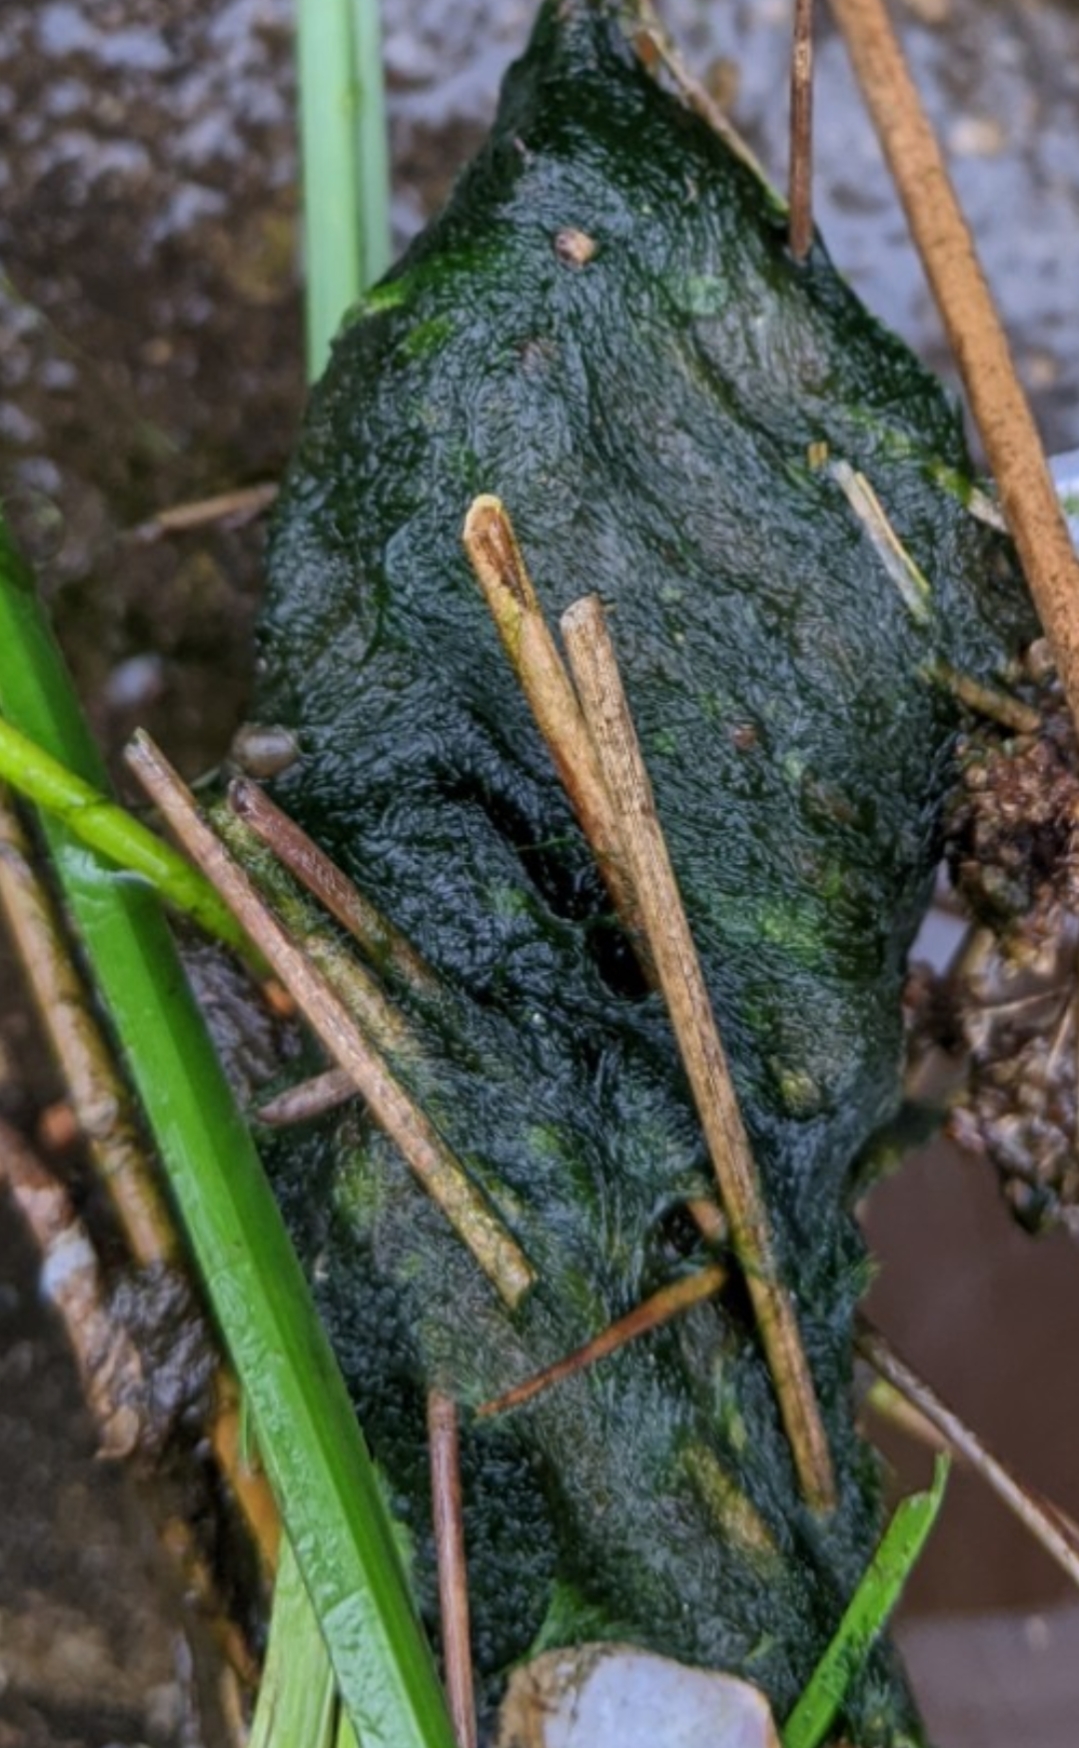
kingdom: Chromista
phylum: Ochrophyta
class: Xanthophyceae
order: Vaucheriales
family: Vaucheriaceae
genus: Vaucheria
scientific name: Vaucheria
